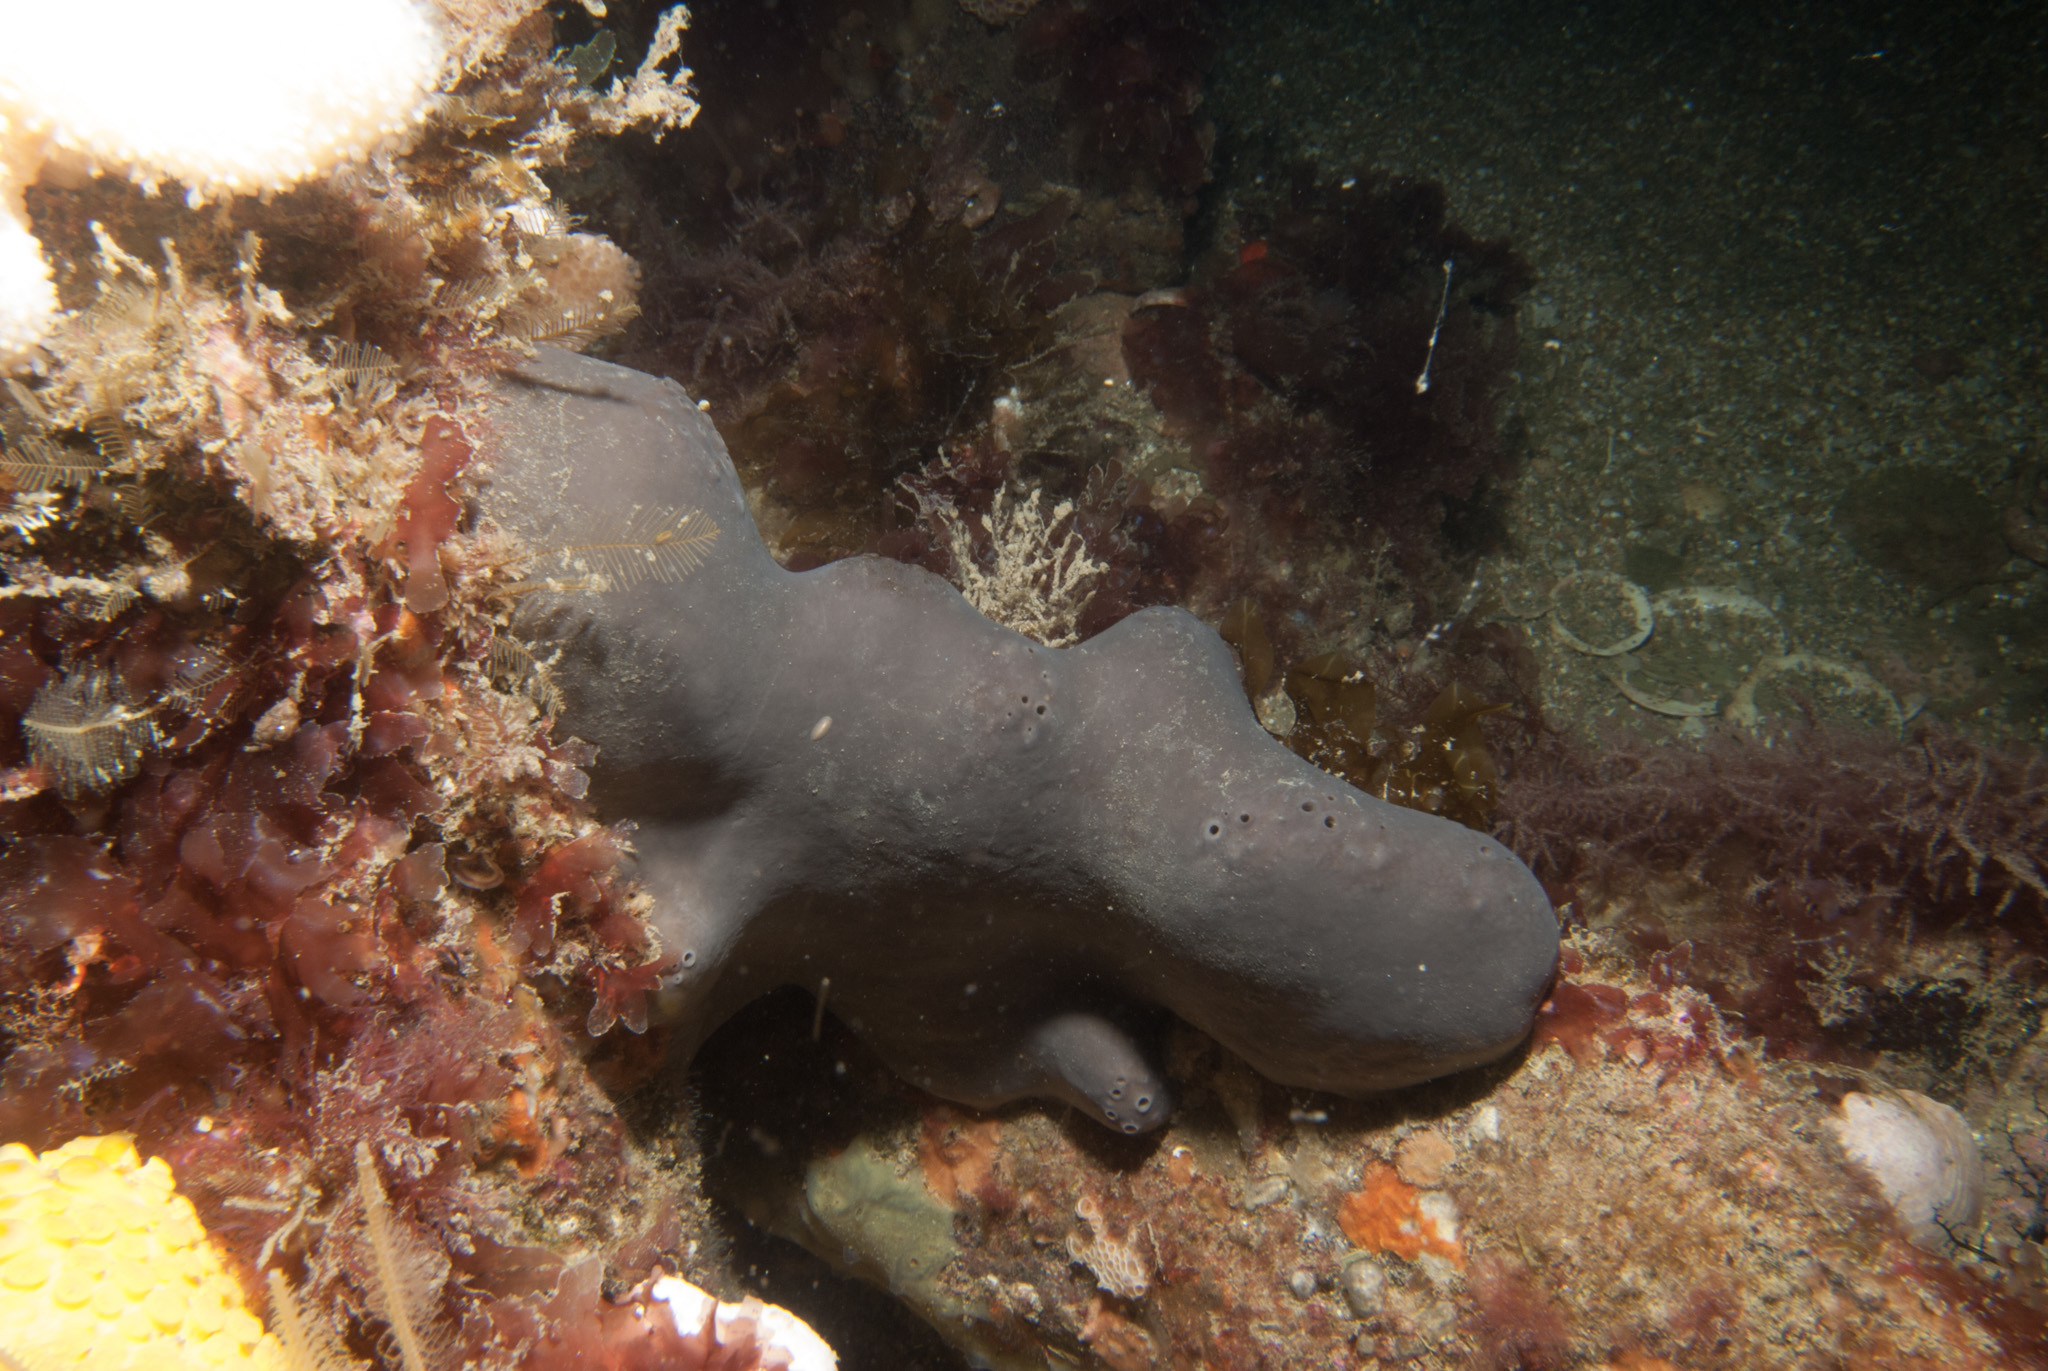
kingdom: Animalia
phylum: Porifera
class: Demospongiae
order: Tetractinellida
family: Geodiidae
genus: Pachymatisma
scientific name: Pachymatisma johnstonia
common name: Elephant ear sponge
